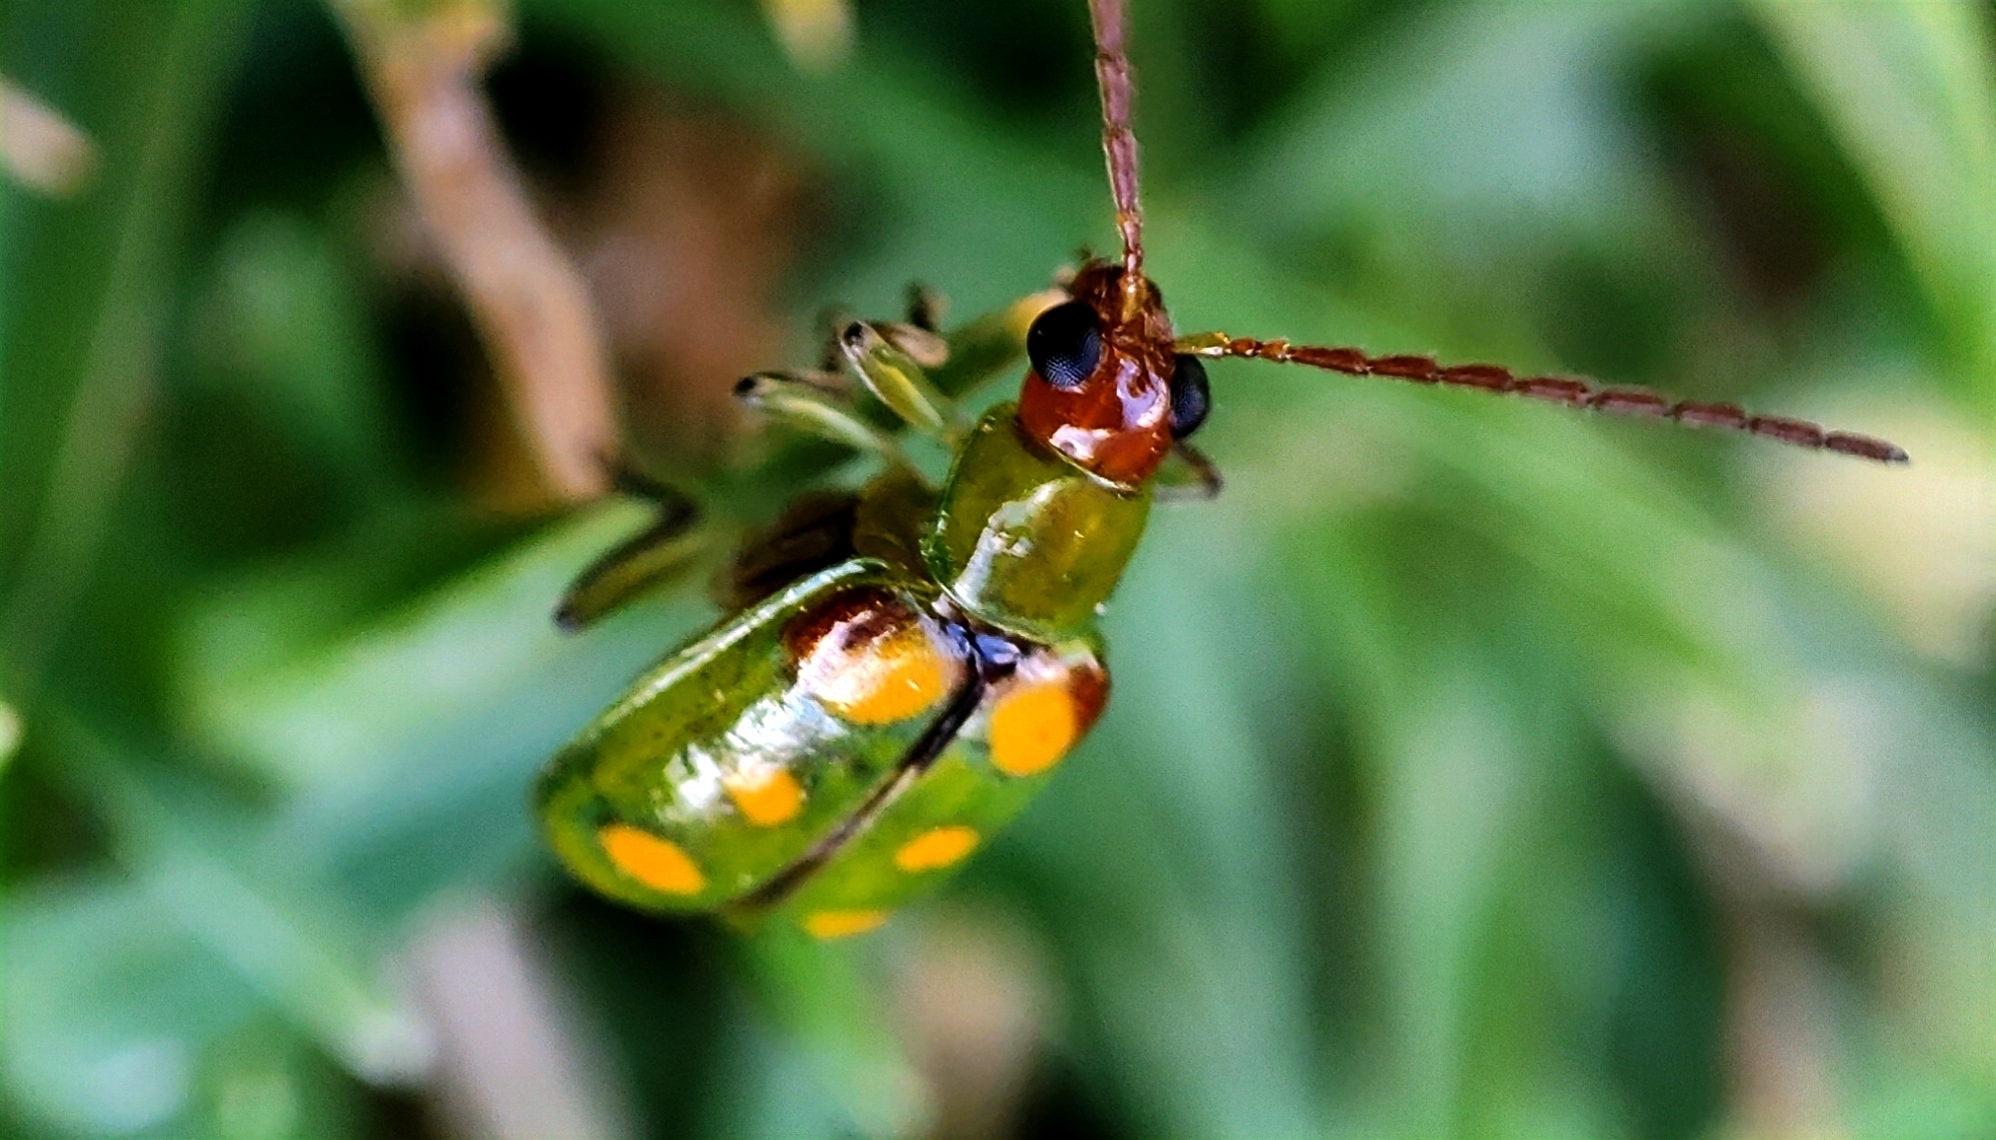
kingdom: Animalia
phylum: Arthropoda
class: Insecta
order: Coleoptera
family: Chrysomelidae
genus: Diabrotica
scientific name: Diabrotica speciosa
